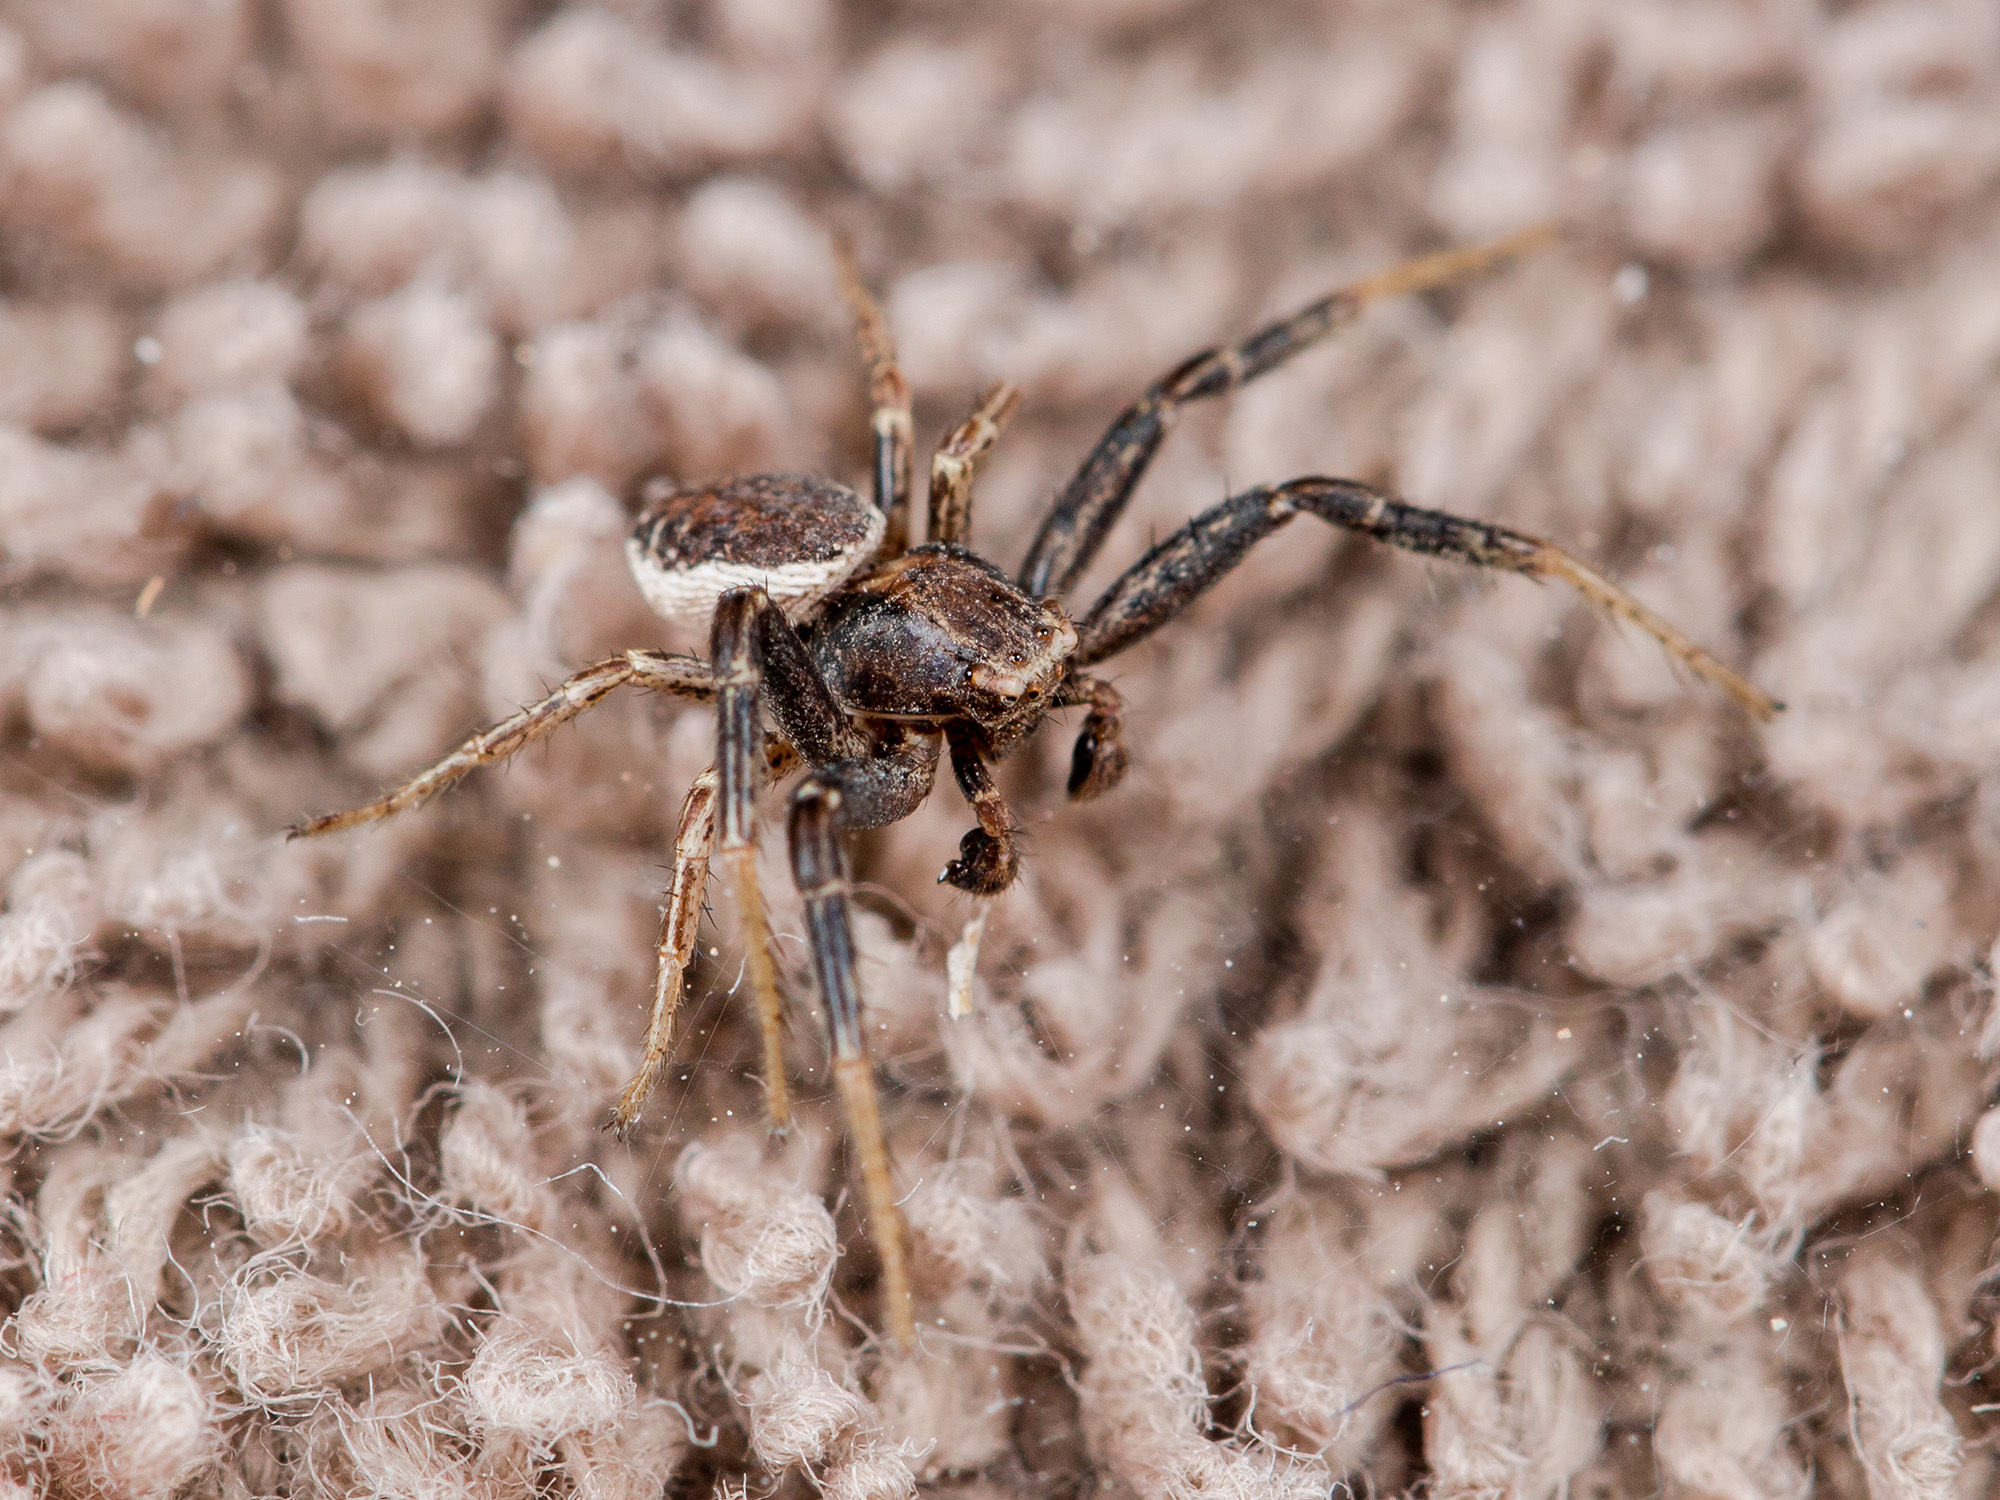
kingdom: Animalia
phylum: Arthropoda
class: Arachnida
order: Araneae
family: Thomisidae
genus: Xysticus
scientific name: Xysticus marmoratus
